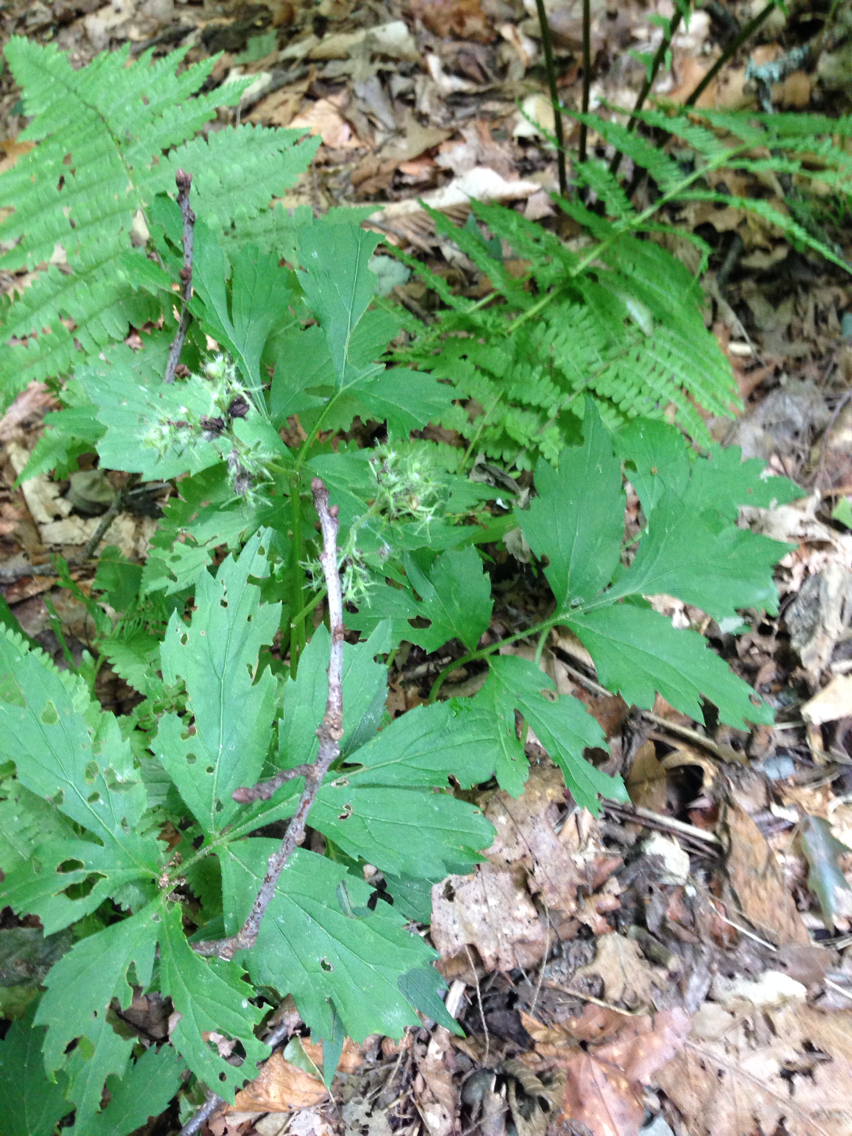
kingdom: Plantae
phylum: Tracheophyta
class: Magnoliopsida
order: Boraginales
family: Hydrophyllaceae
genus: Hydrophyllum
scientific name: Hydrophyllum virginianum
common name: Virginia waterleaf
